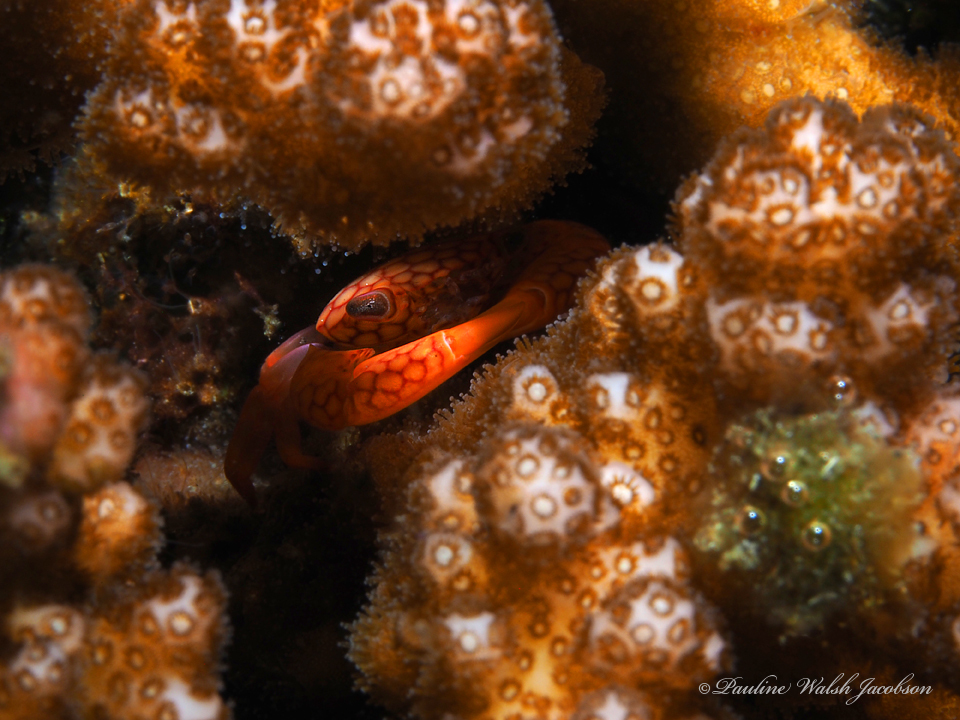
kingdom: Animalia
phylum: Arthropoda
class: Malacostraca
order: Decapoda
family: Trapeziidae
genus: Trapezia
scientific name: Trapezia septata
